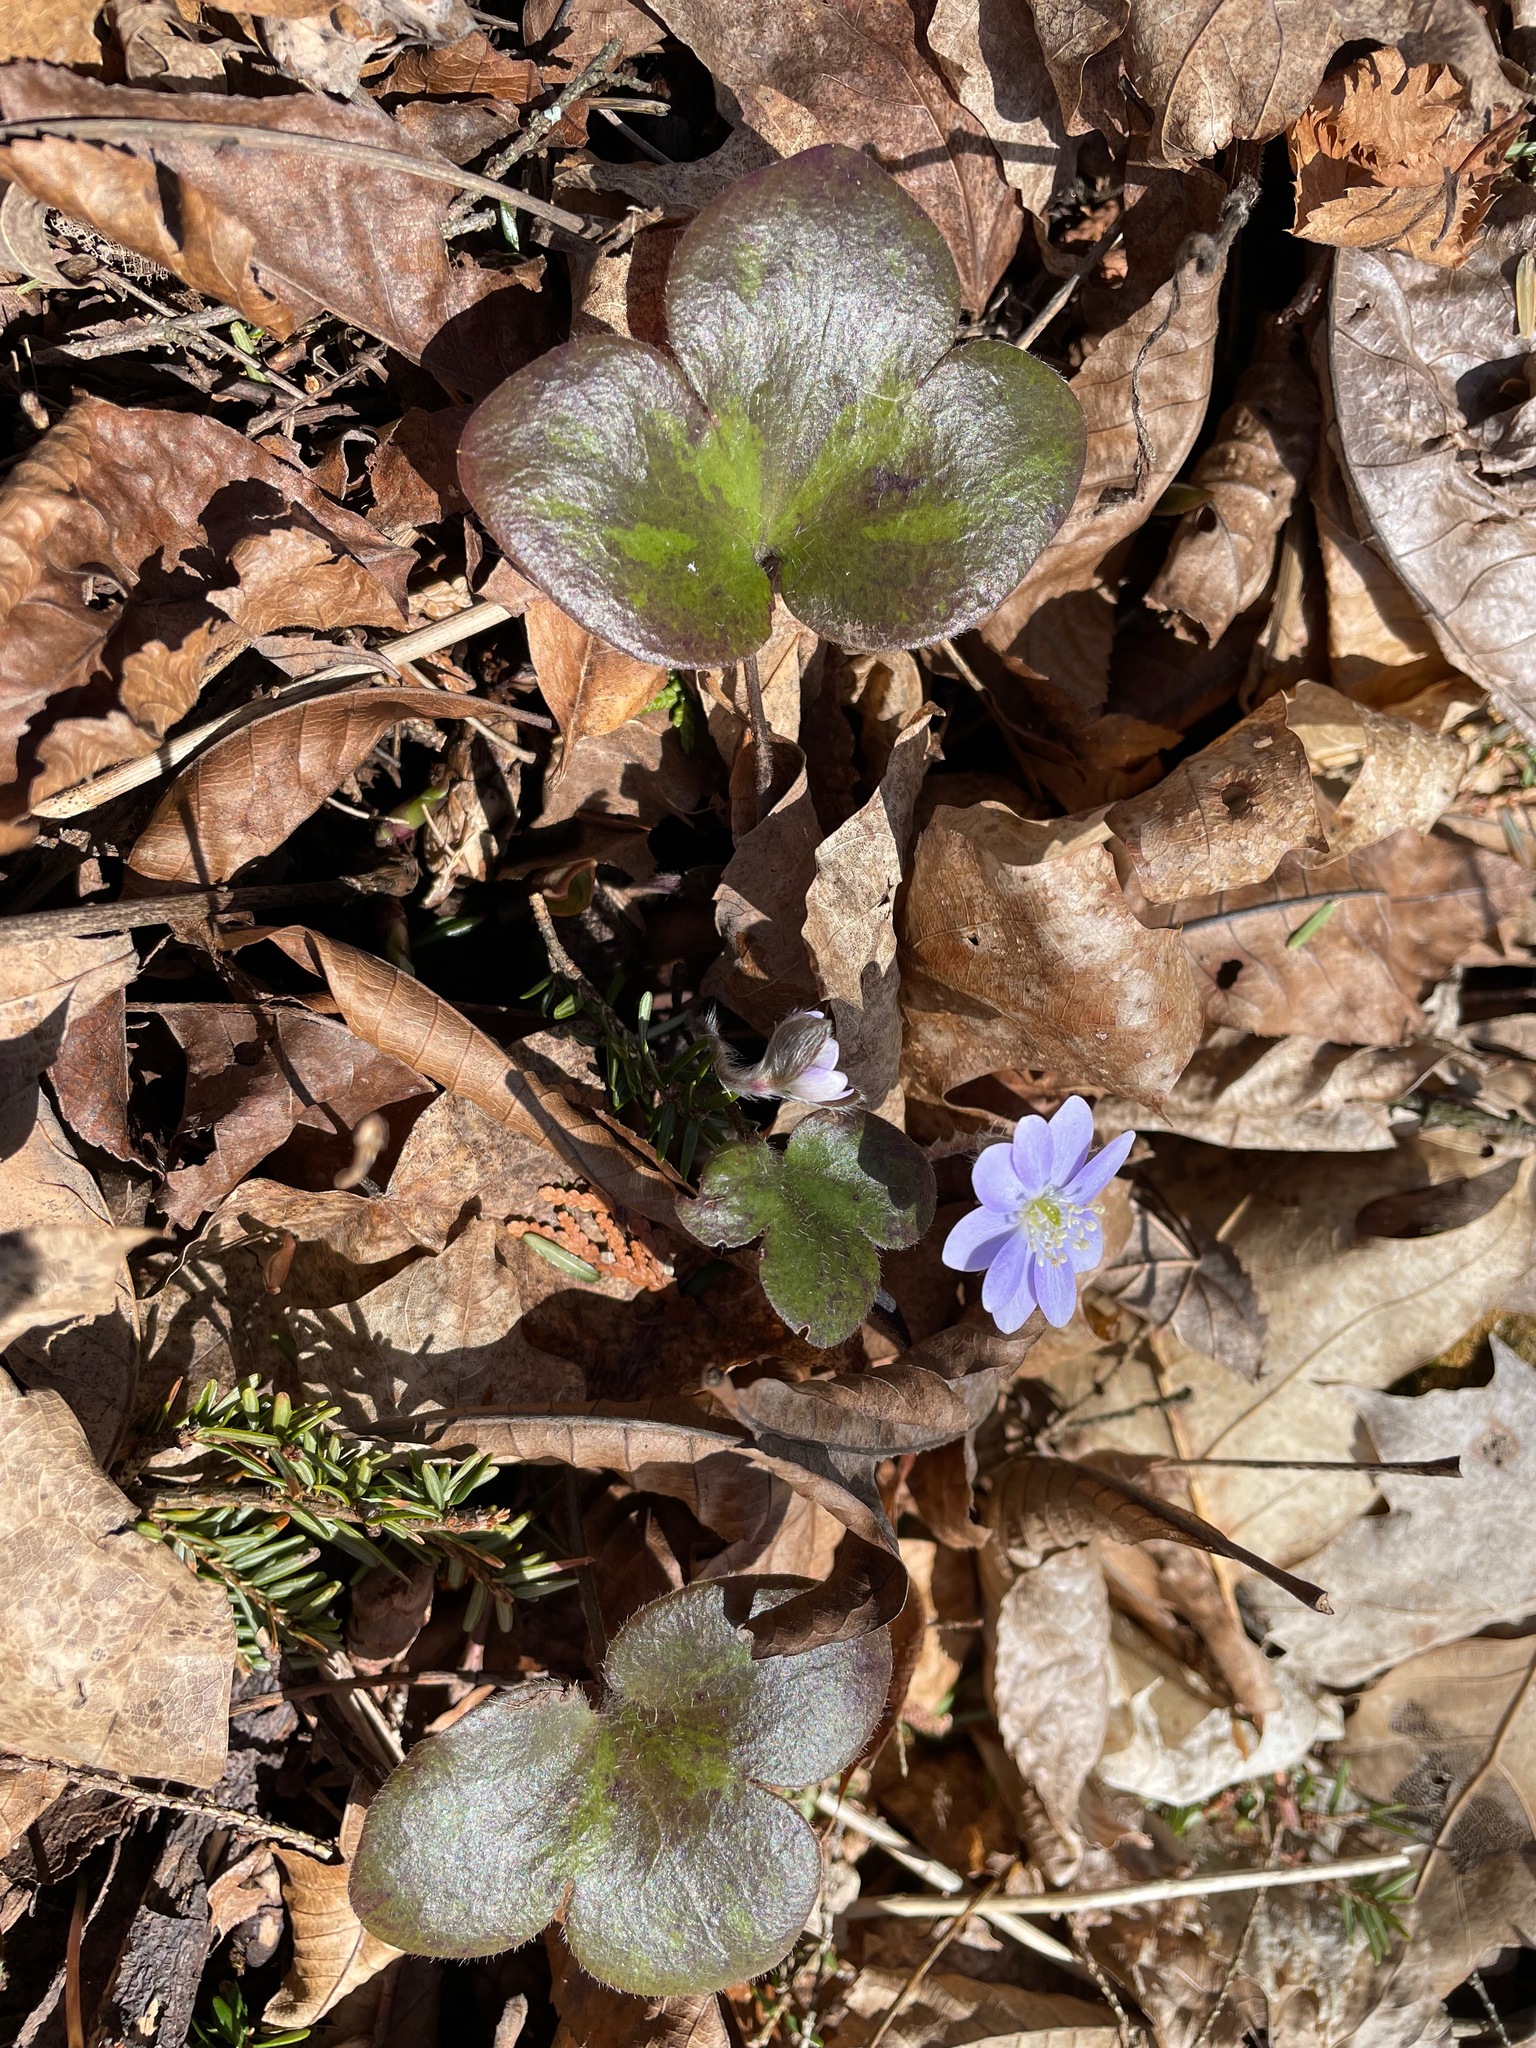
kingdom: Plantae
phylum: Tracheophyta
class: Magnoliopsida
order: Ranunculales
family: Ranunculaceae
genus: Hepatica
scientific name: Hepatica americana
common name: American hepatica
